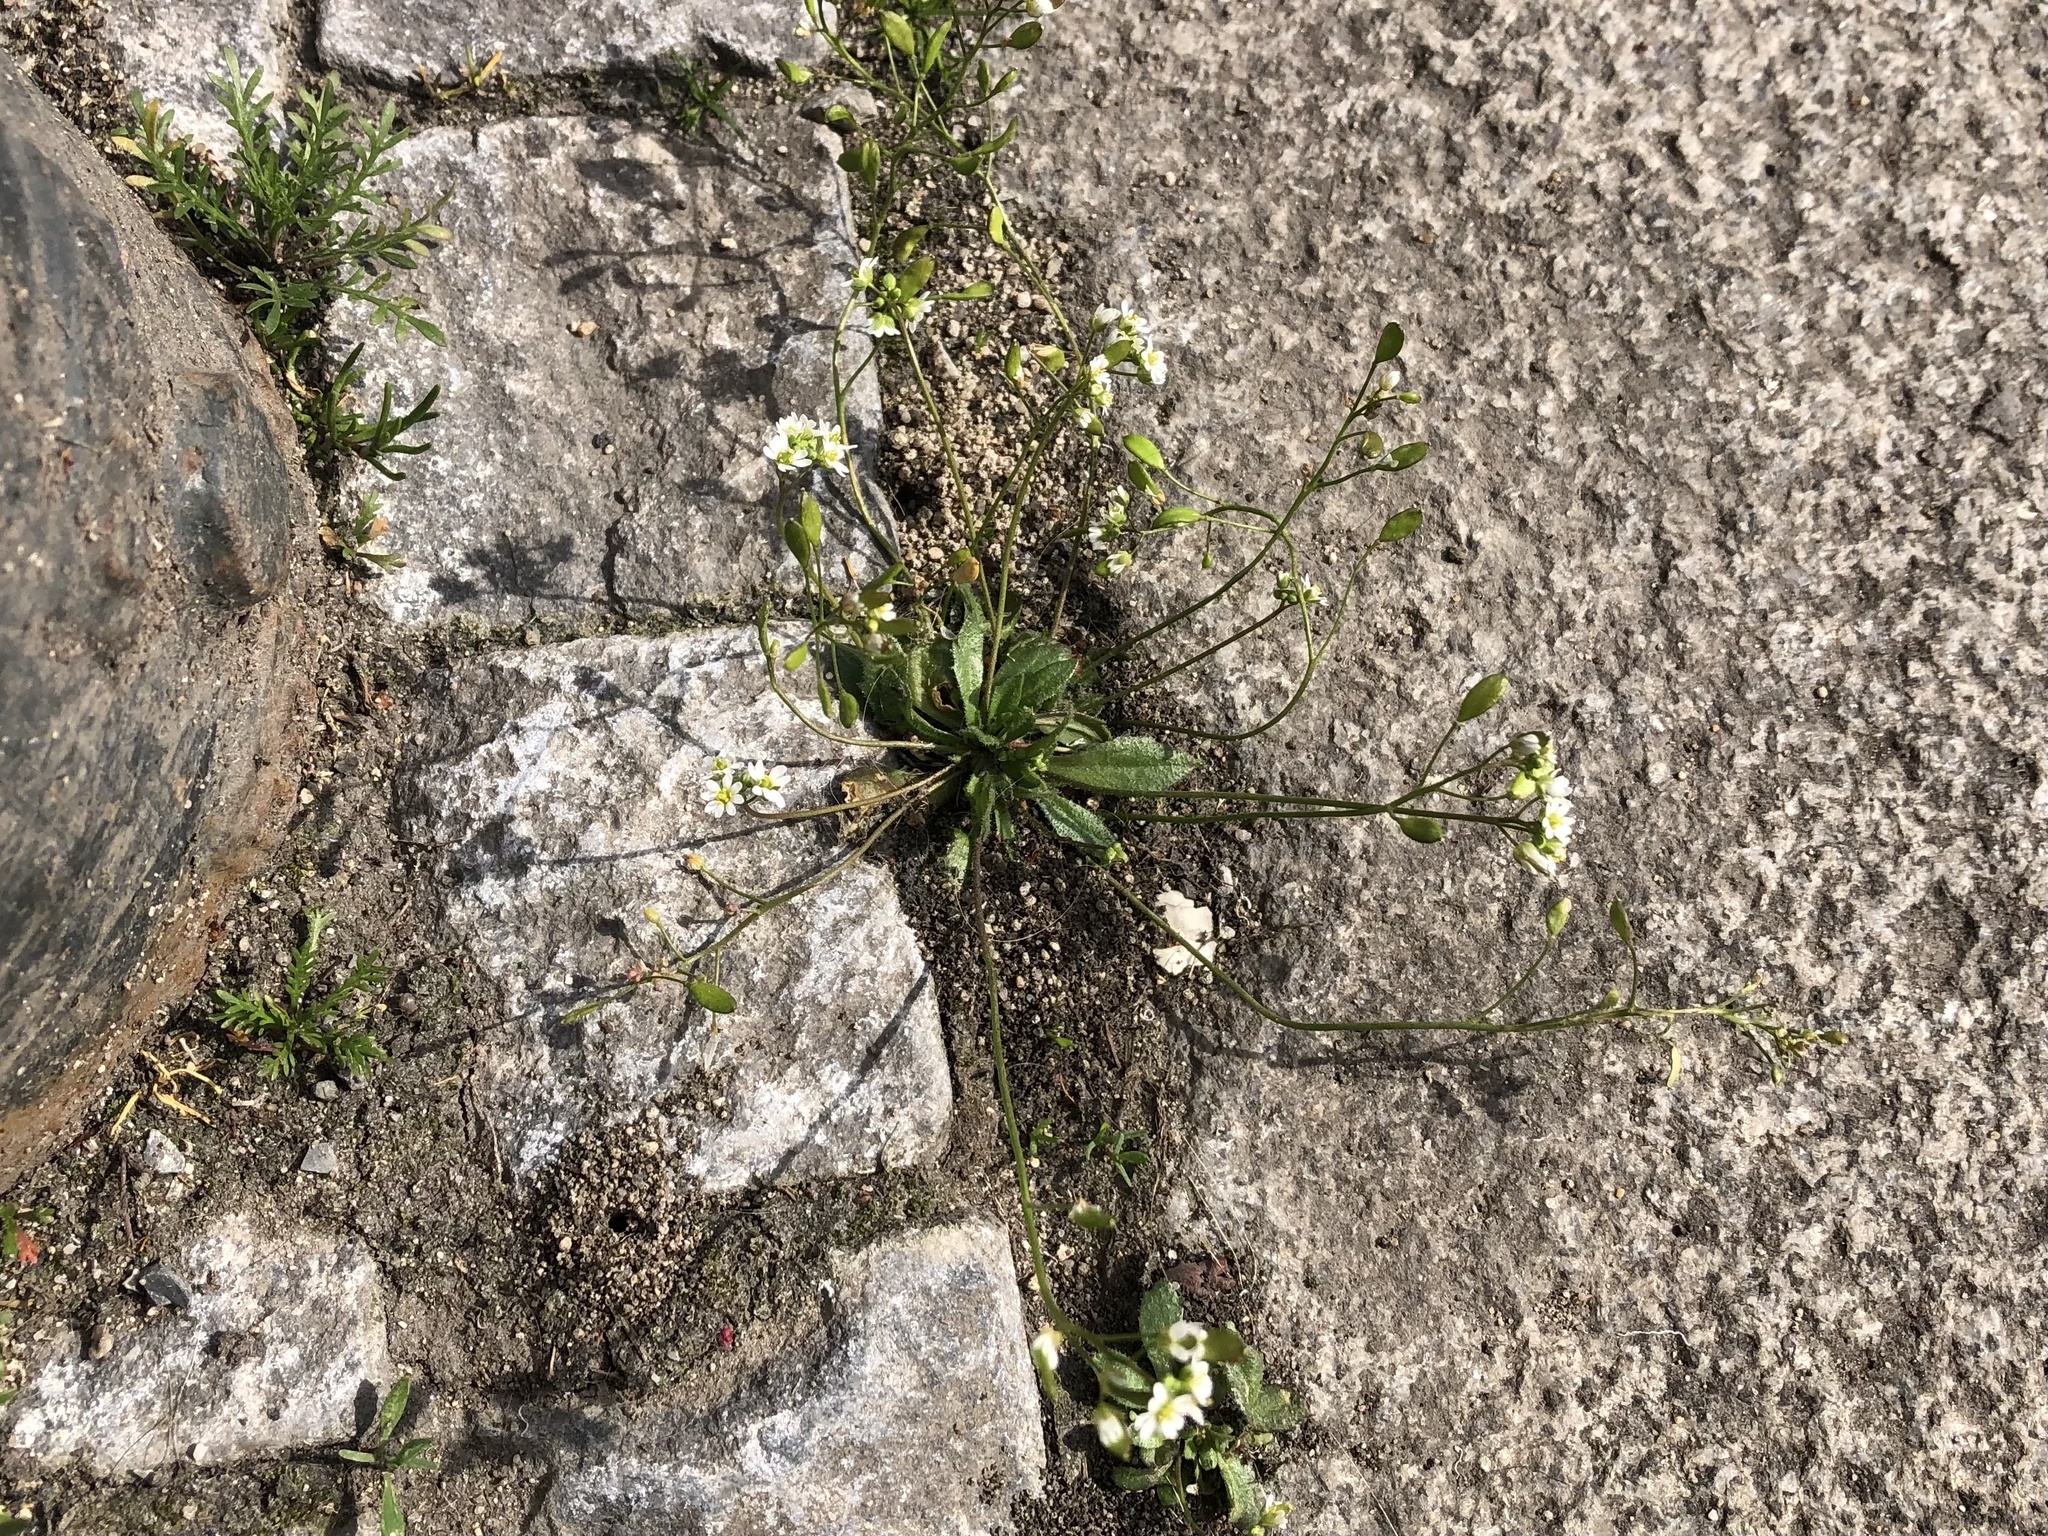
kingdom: Plantae
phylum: Tracheophyta
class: Magnoliopsida
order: Brassicales
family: Brassicaceae
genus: Draba
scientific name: Draba verna
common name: Spring draba
